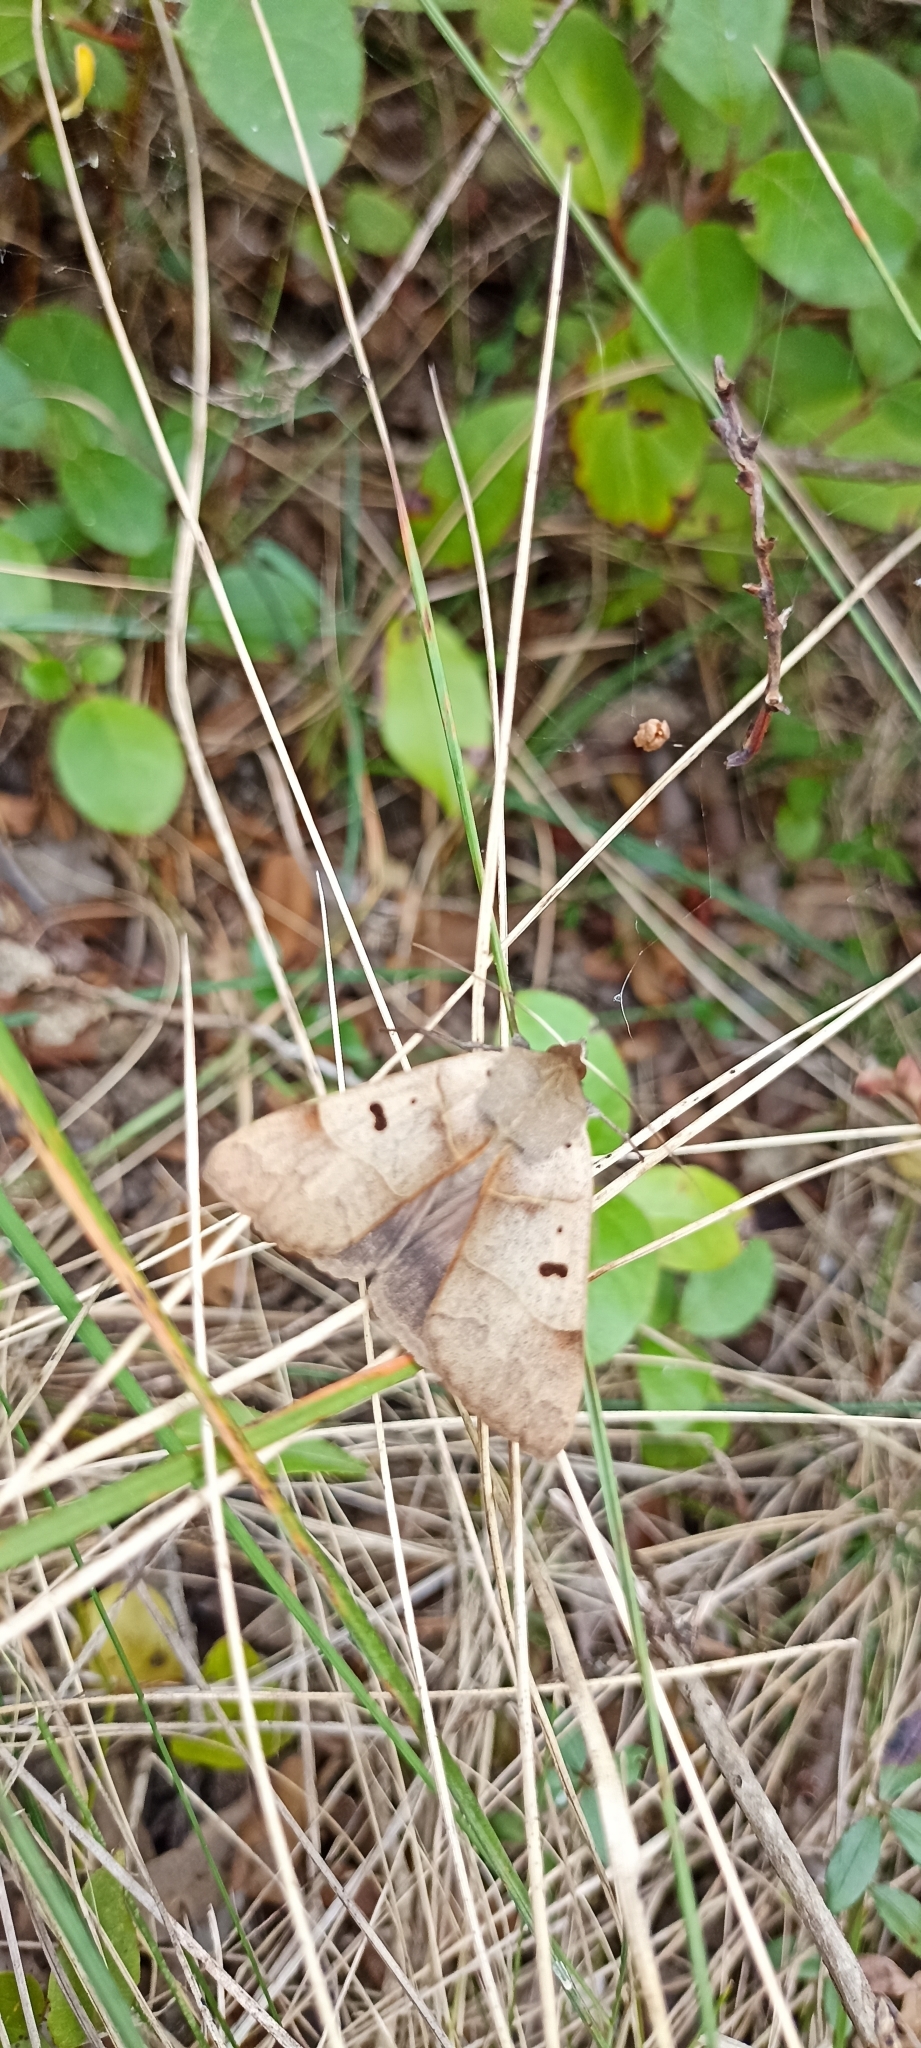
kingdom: Animalia
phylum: Arthropoda
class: Insecta
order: Lepidoptera
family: Erebidae
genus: Minucia
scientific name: Minucia lunaris
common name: Lunar double-stripe
